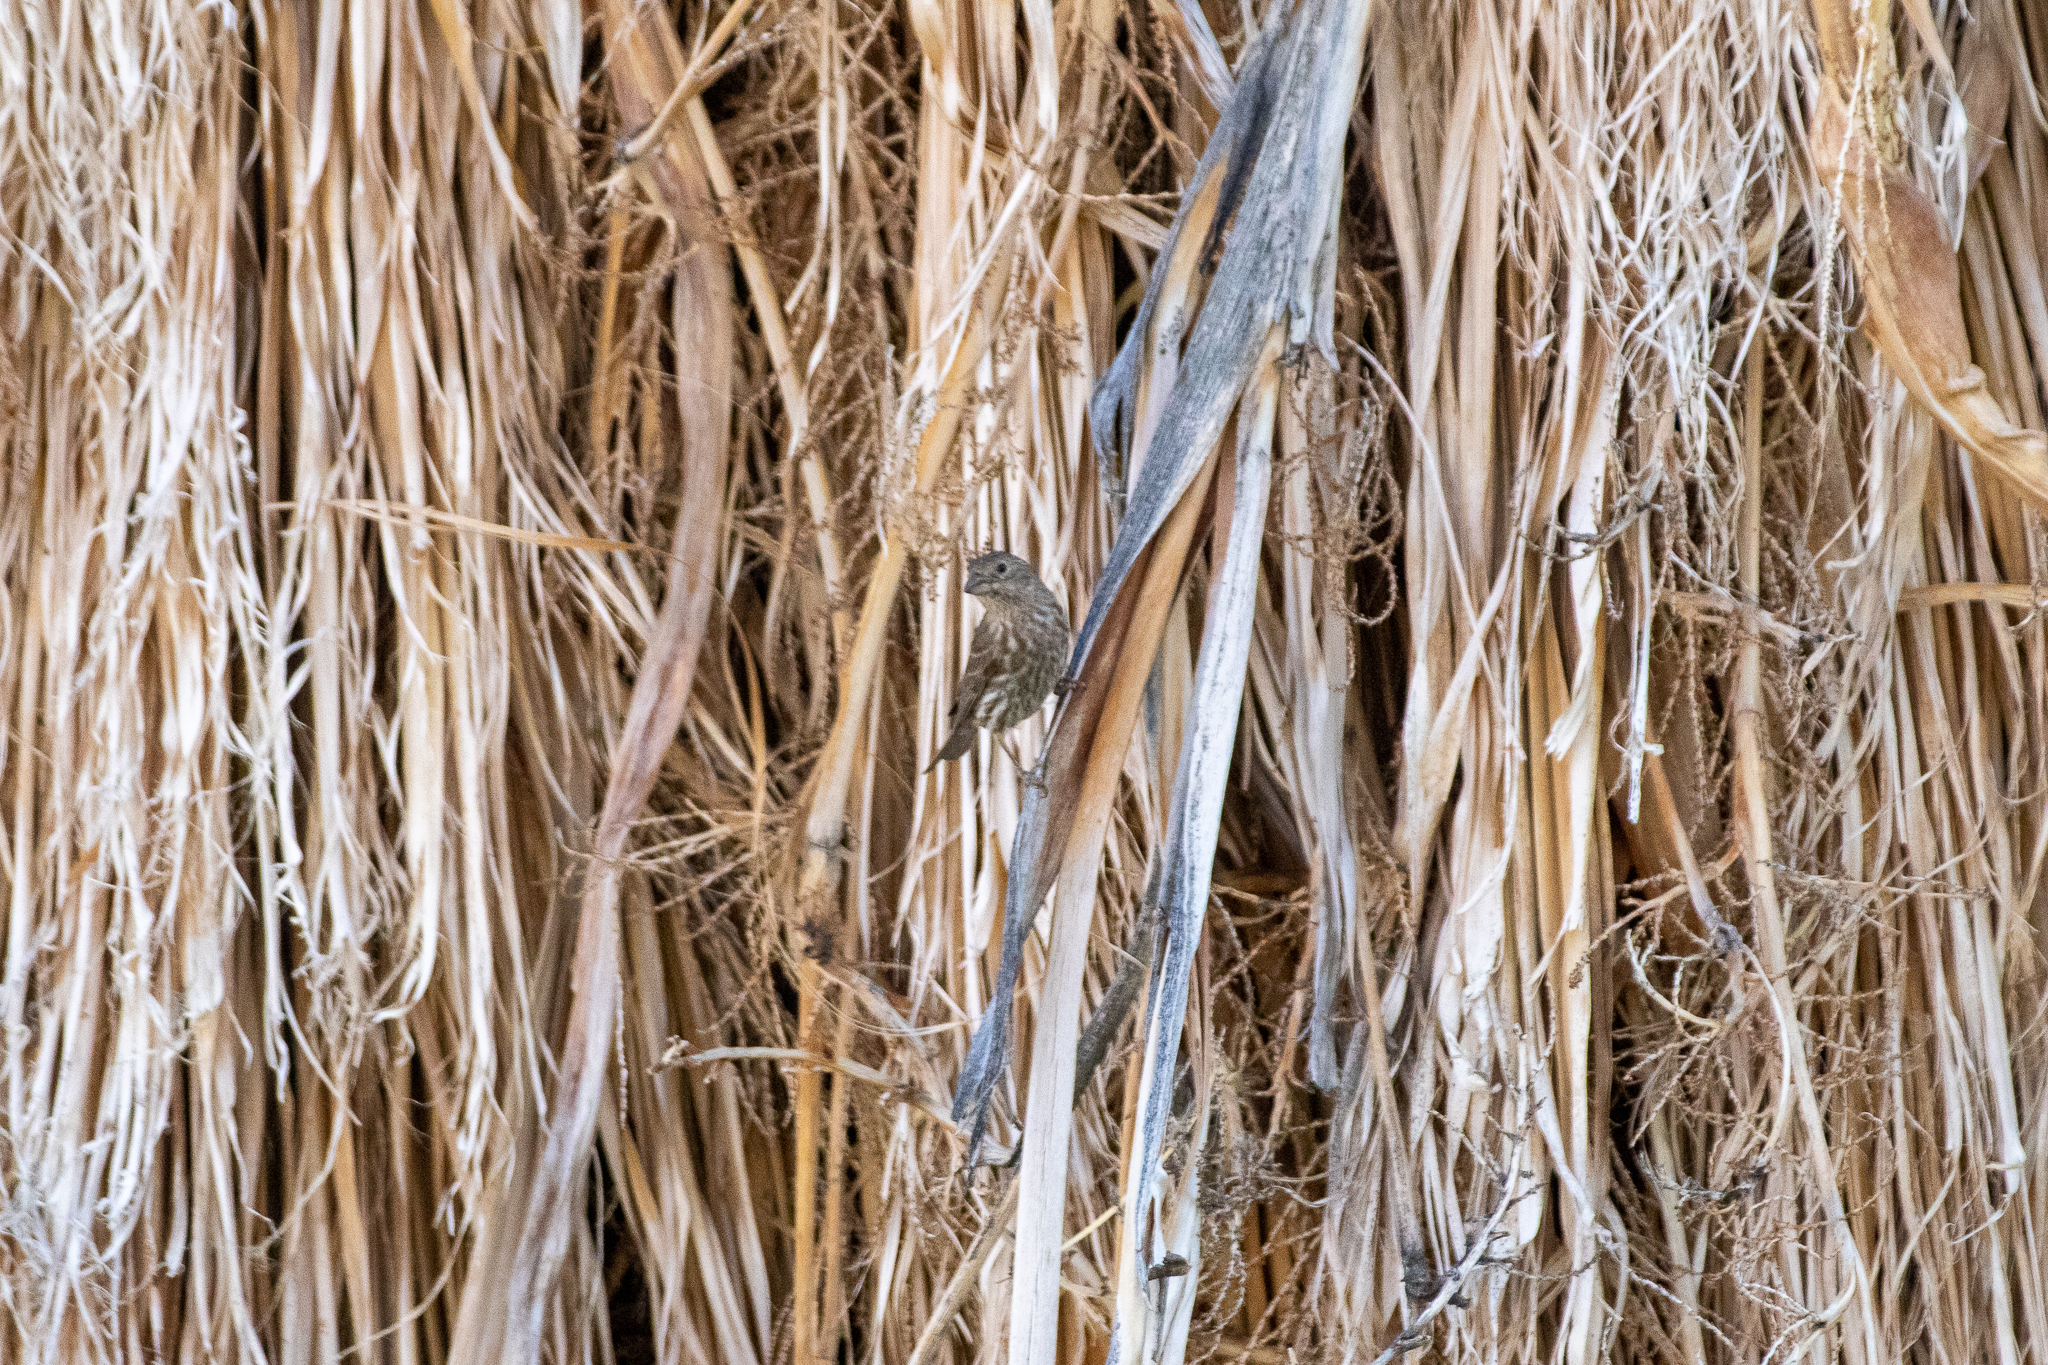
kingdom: Animalia
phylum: Chordata
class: Aves
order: Passeriformes
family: Fringillidae
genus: Haemorhous
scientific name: Haemorhous mexicanus
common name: House finch
